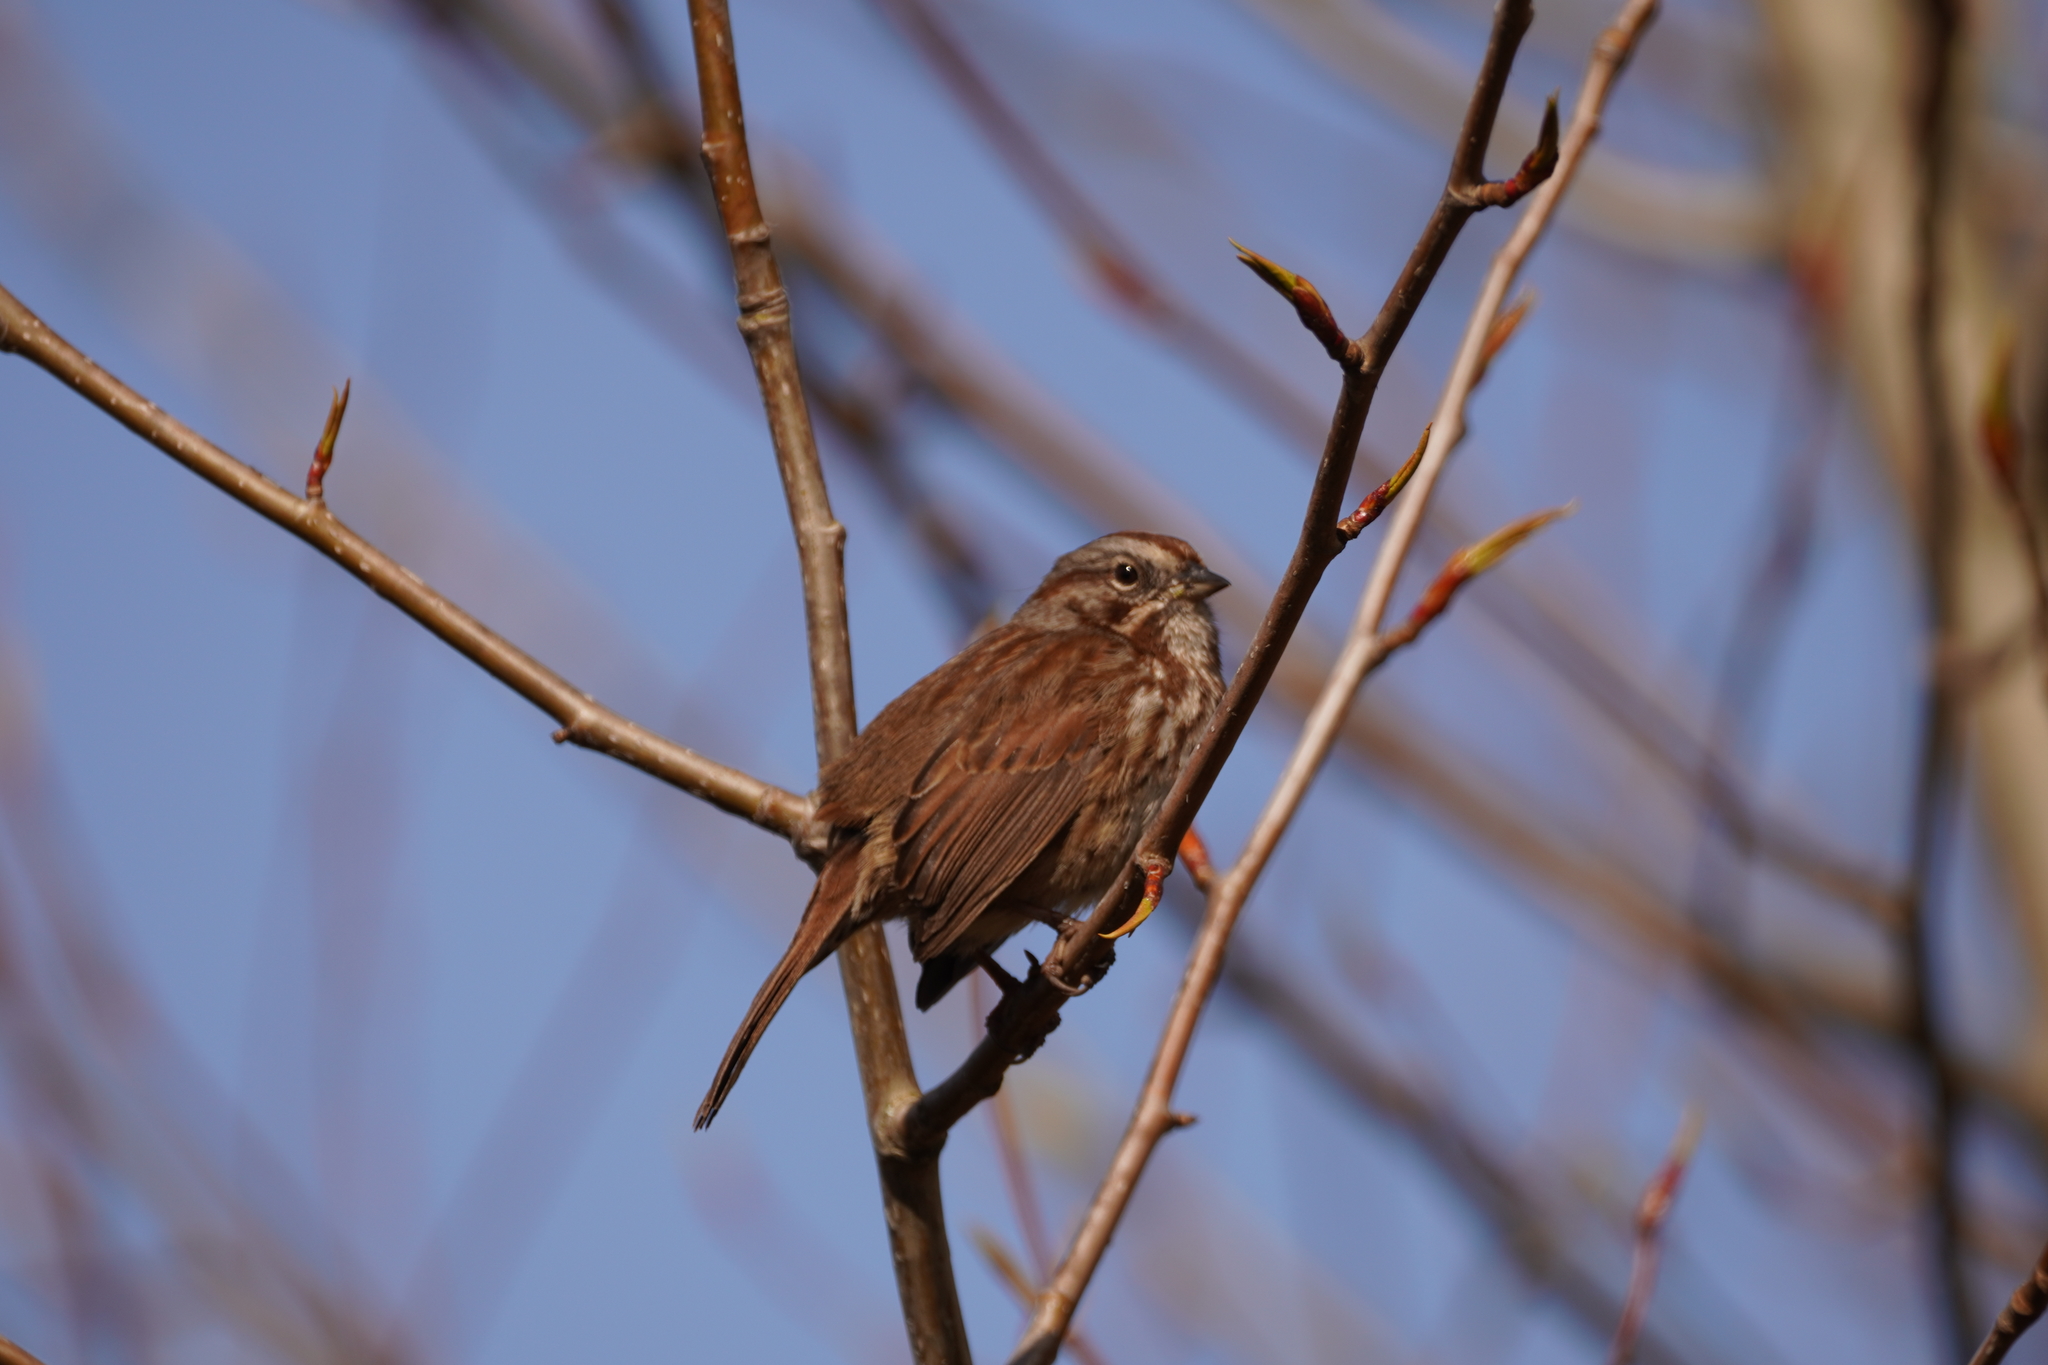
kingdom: Animalia
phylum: Chordata
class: Aves
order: Passeriformes
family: Passerellidae
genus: Melospiza
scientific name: Melospiza melodia
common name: Song sparrow
